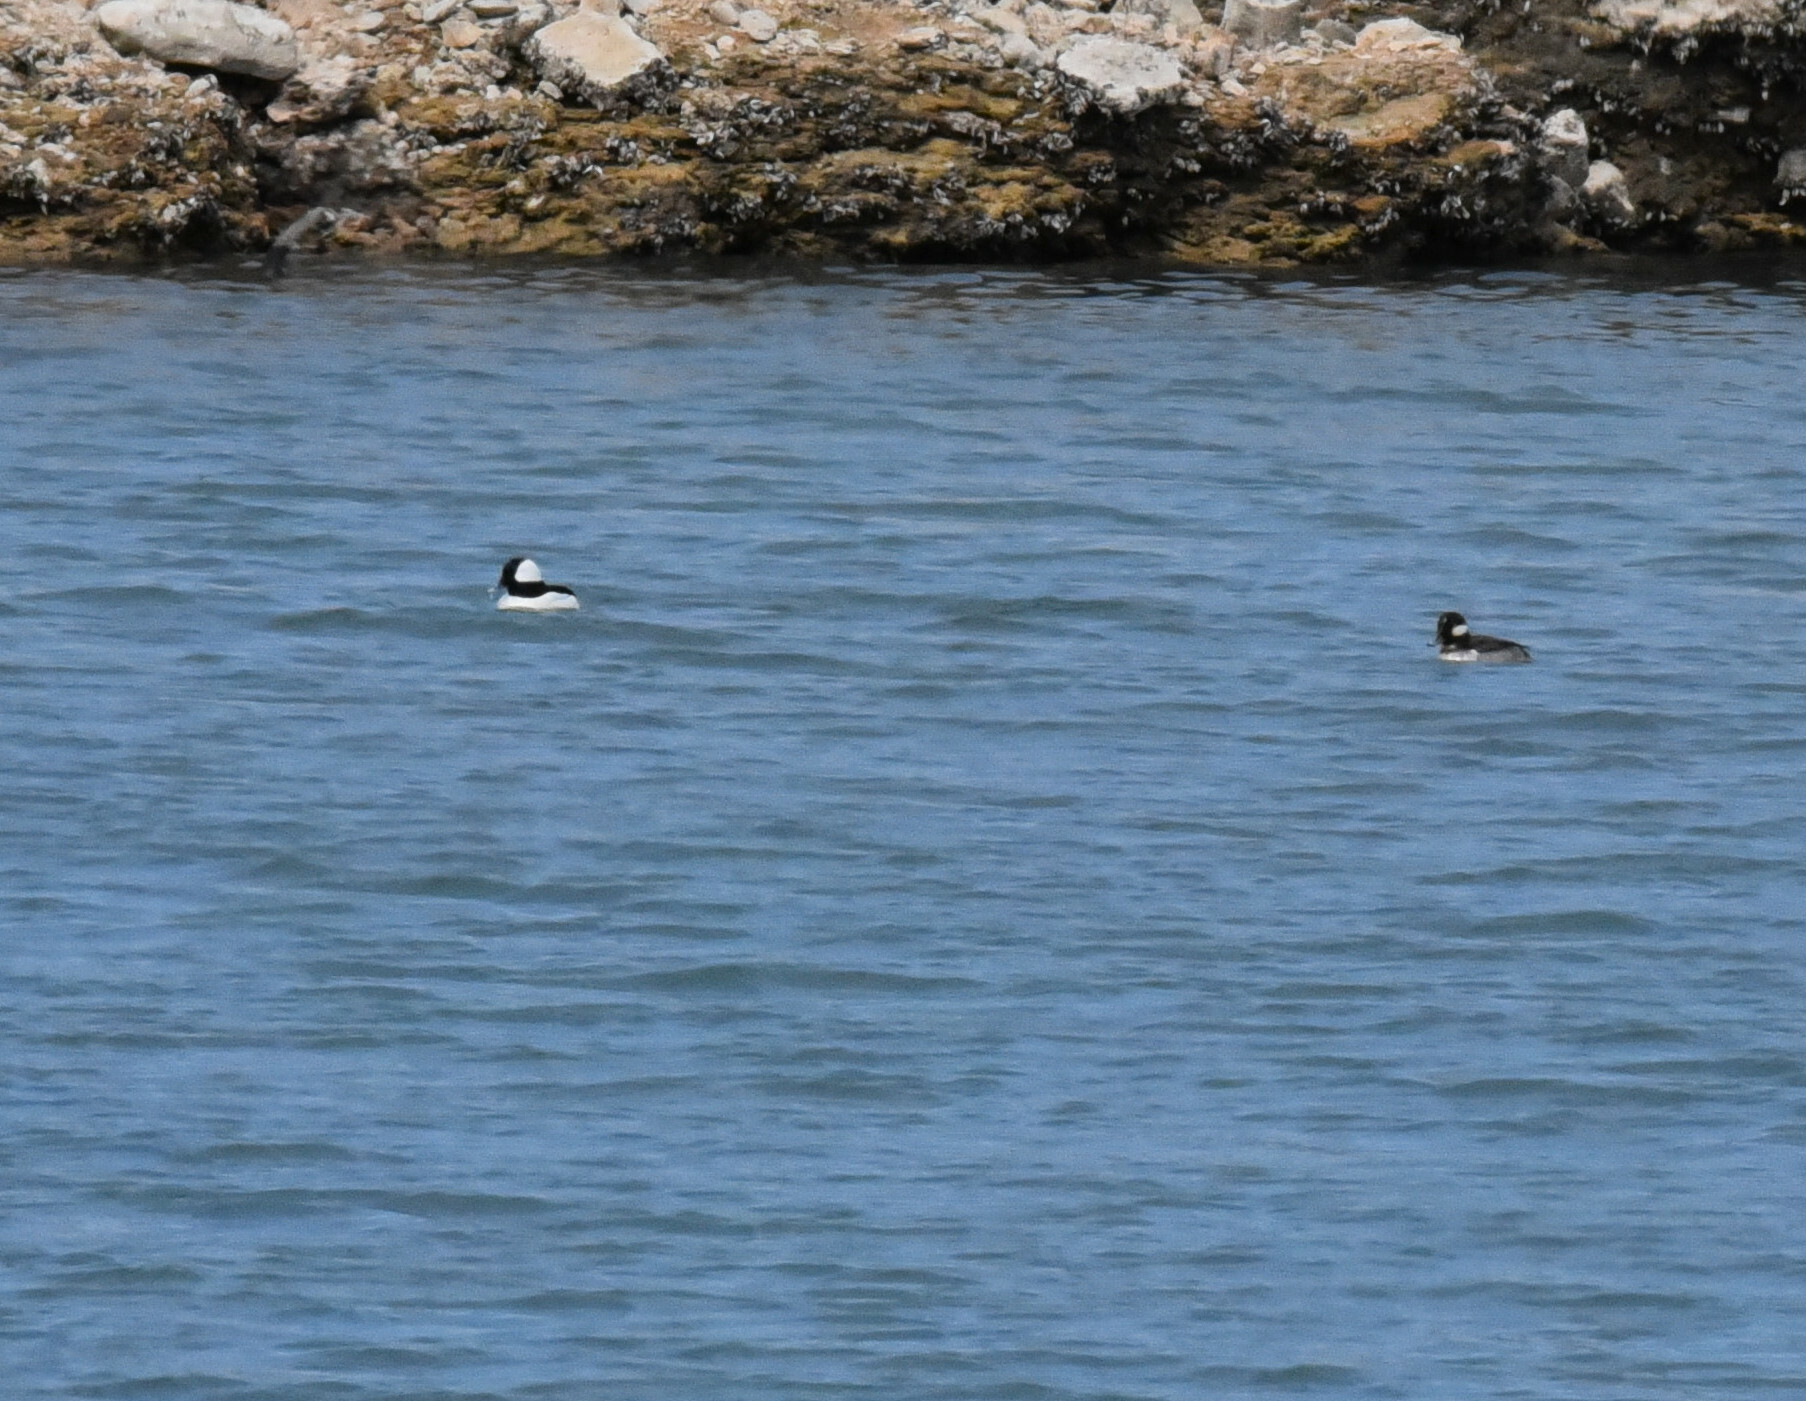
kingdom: Animalia
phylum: Chordata
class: Aves
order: Anseriformes
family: Anatidae
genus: Bucephala
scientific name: Bucephala albeola
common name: Bufflehead
